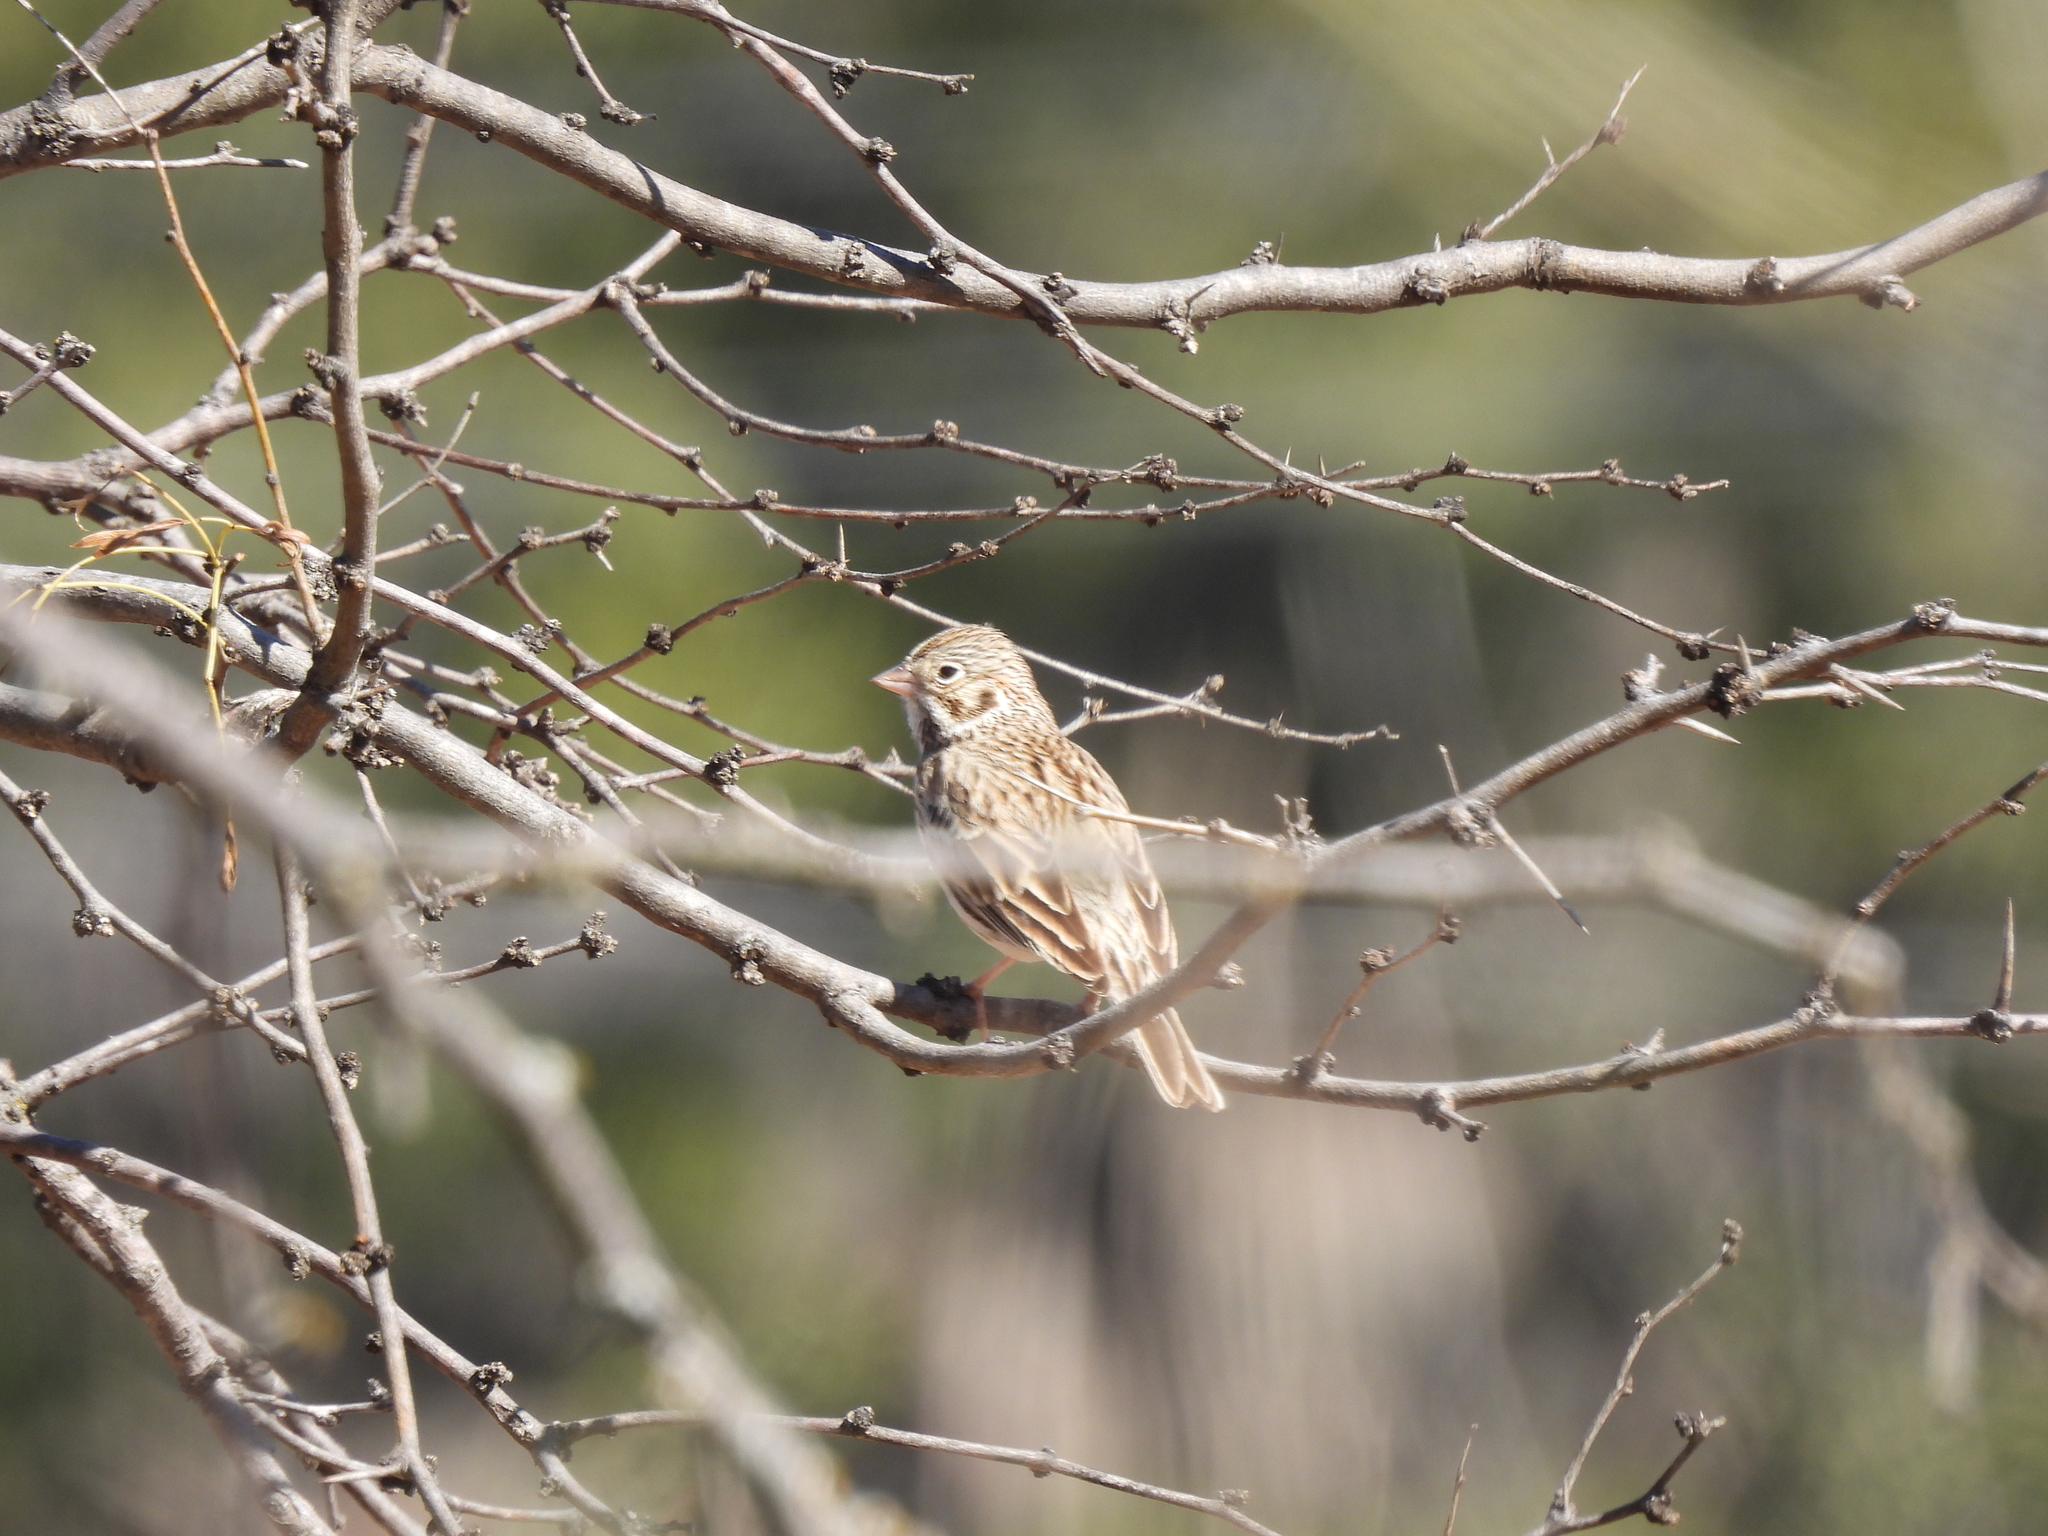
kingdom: Animalia
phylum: Chordata
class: Aves
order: Passeriformes
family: Passerellidae
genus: Pooecetes
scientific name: Pooecetes gramineus
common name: Vesper sparrow
